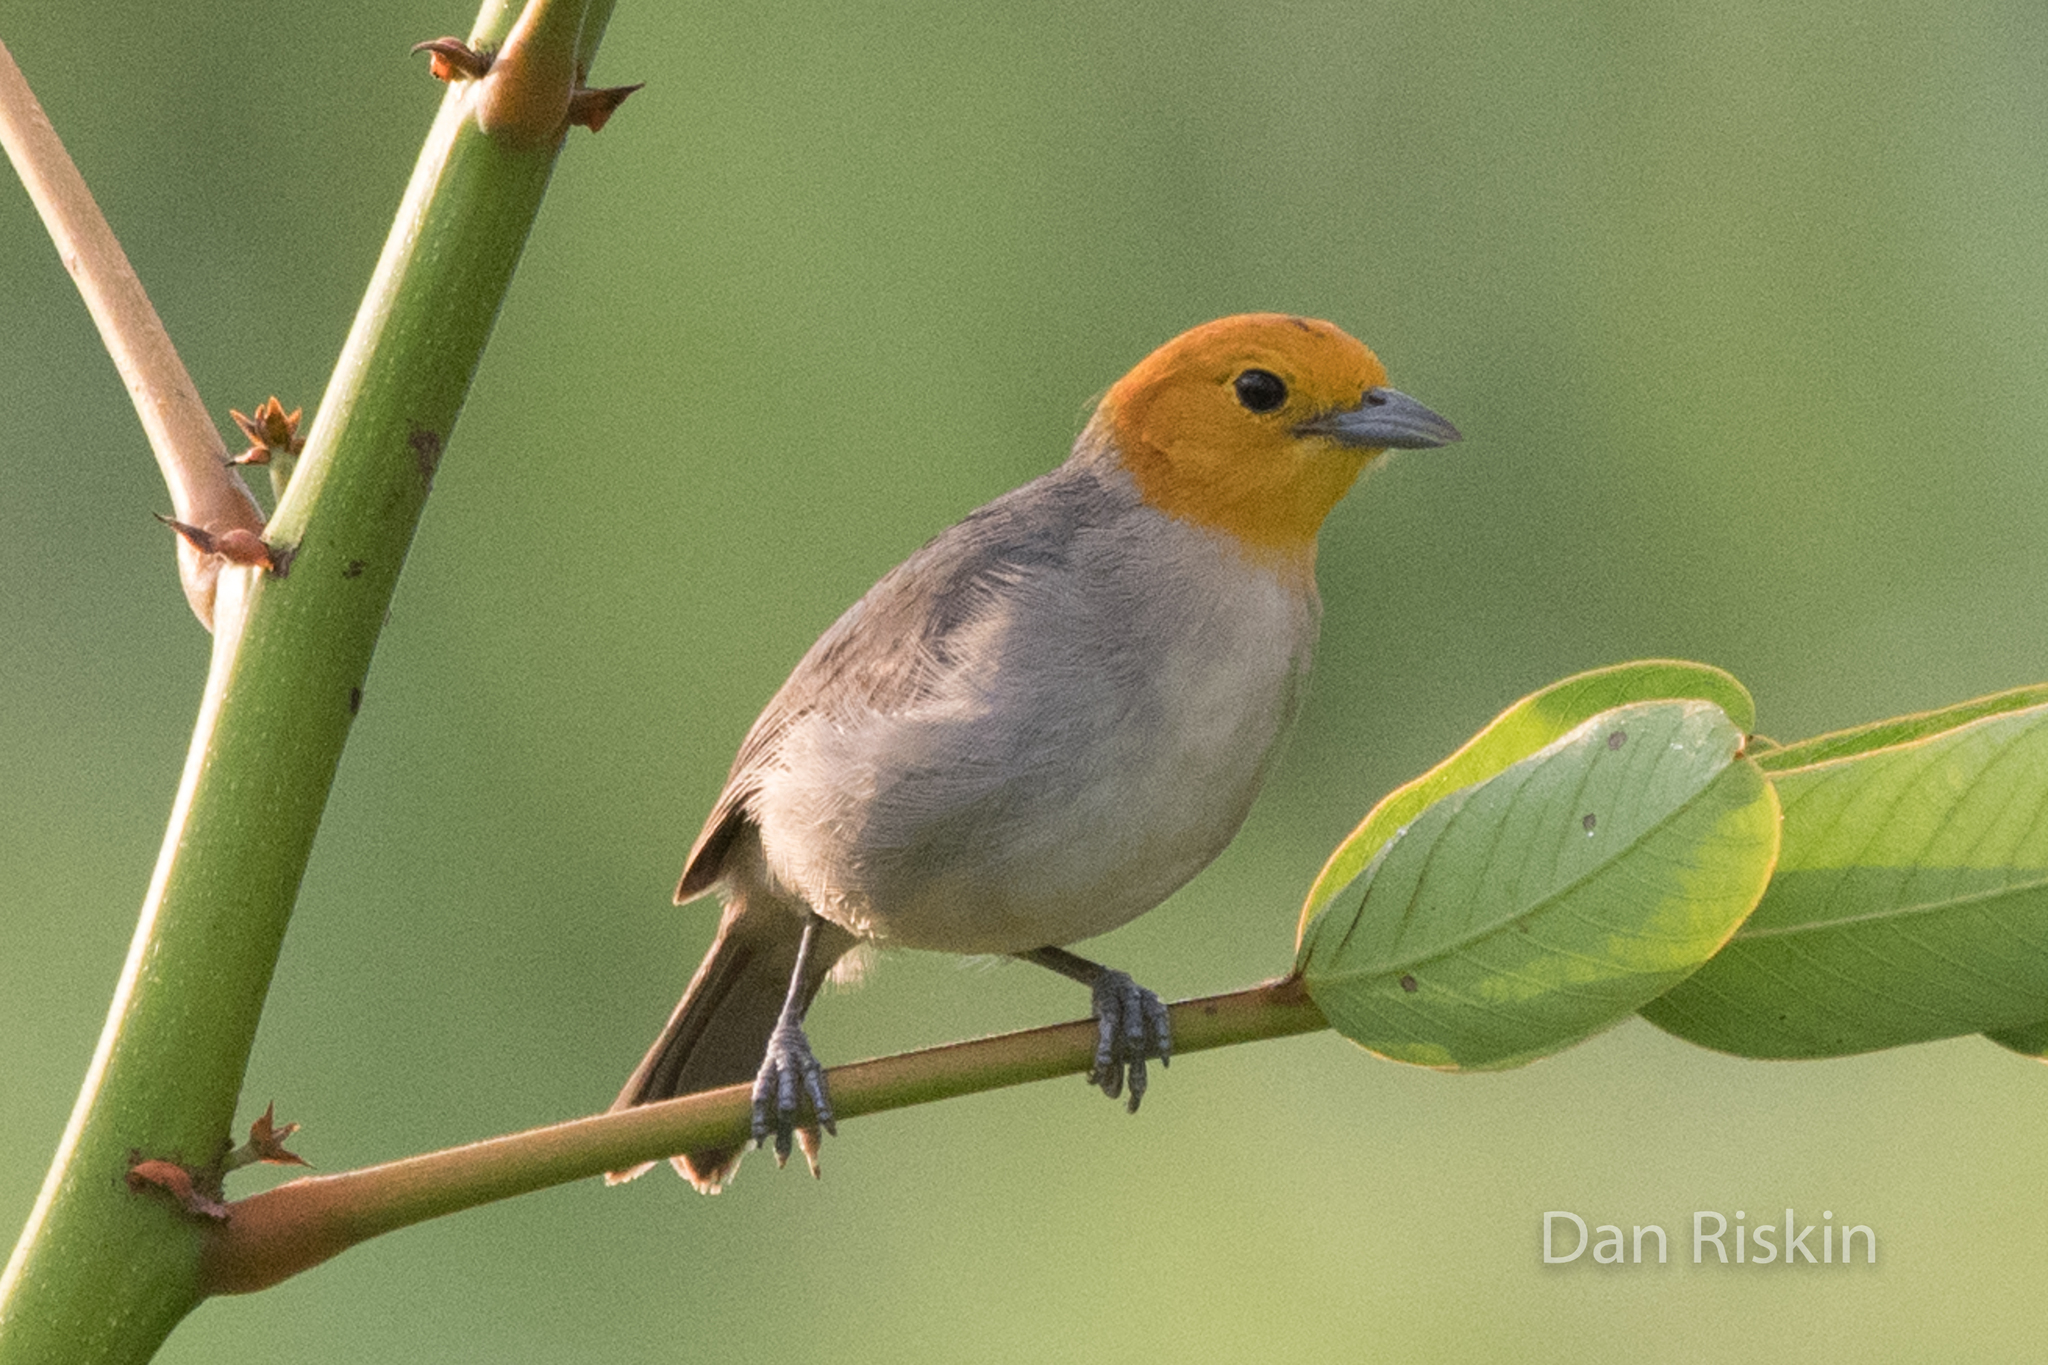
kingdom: Animalia
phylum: Chordata
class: Aves
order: Passeriformes
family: Thraupidae
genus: Thlypopsis
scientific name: Thlypopsis sordida
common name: Orange-headed tanager
